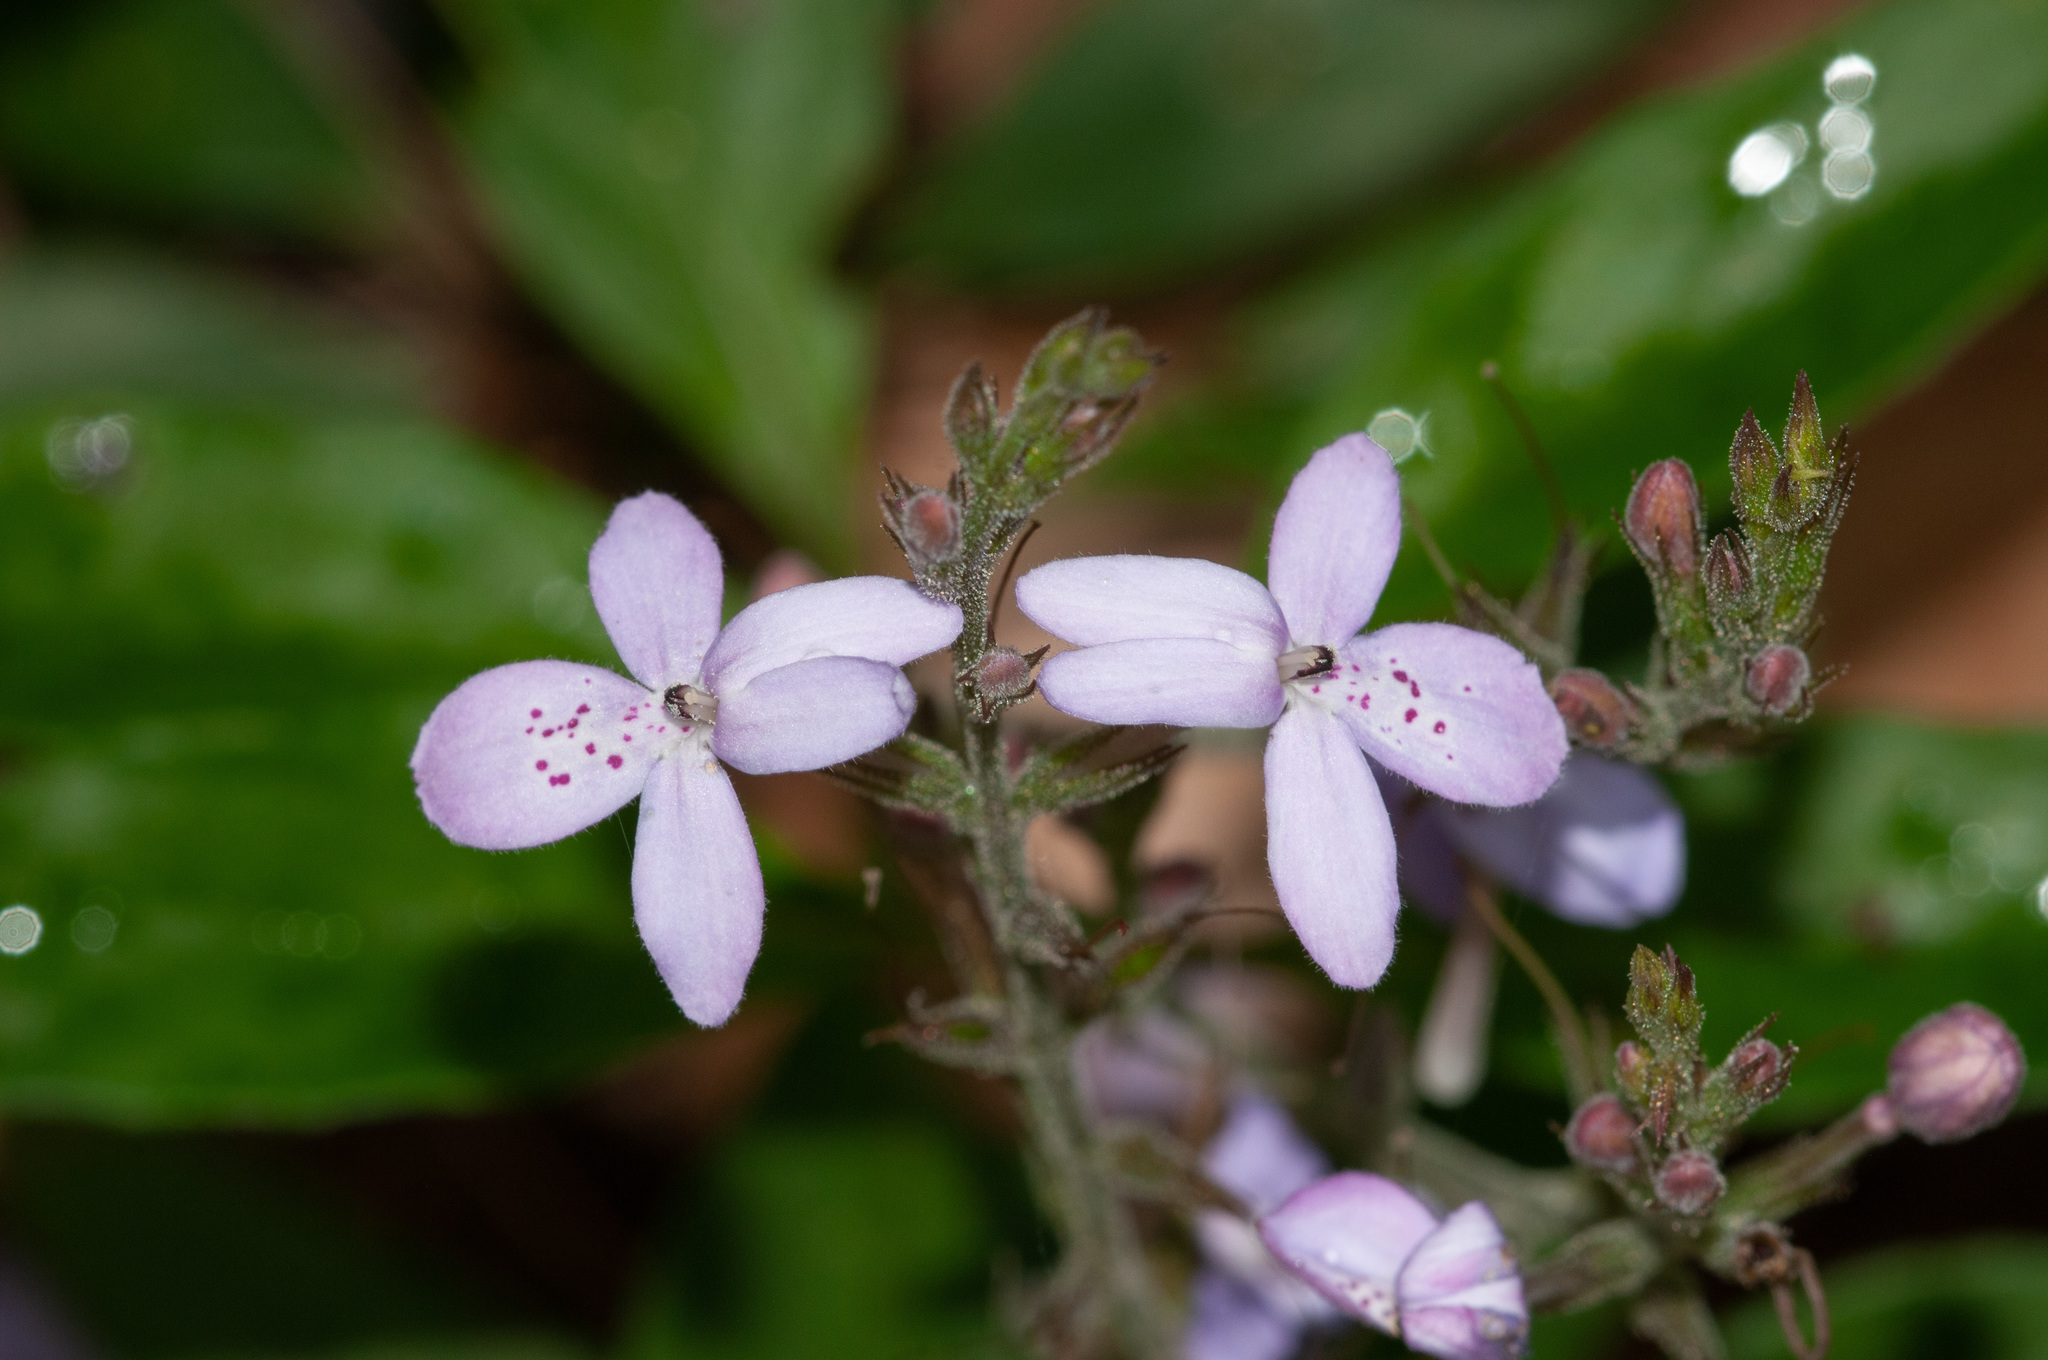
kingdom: Plantae
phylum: Tracheophyta
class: Magnoliopsida
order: Lamiales
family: Acanthaceae
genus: Pseuderanthemum
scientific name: Pseuderanthemum variabile
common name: Night and afternoon
